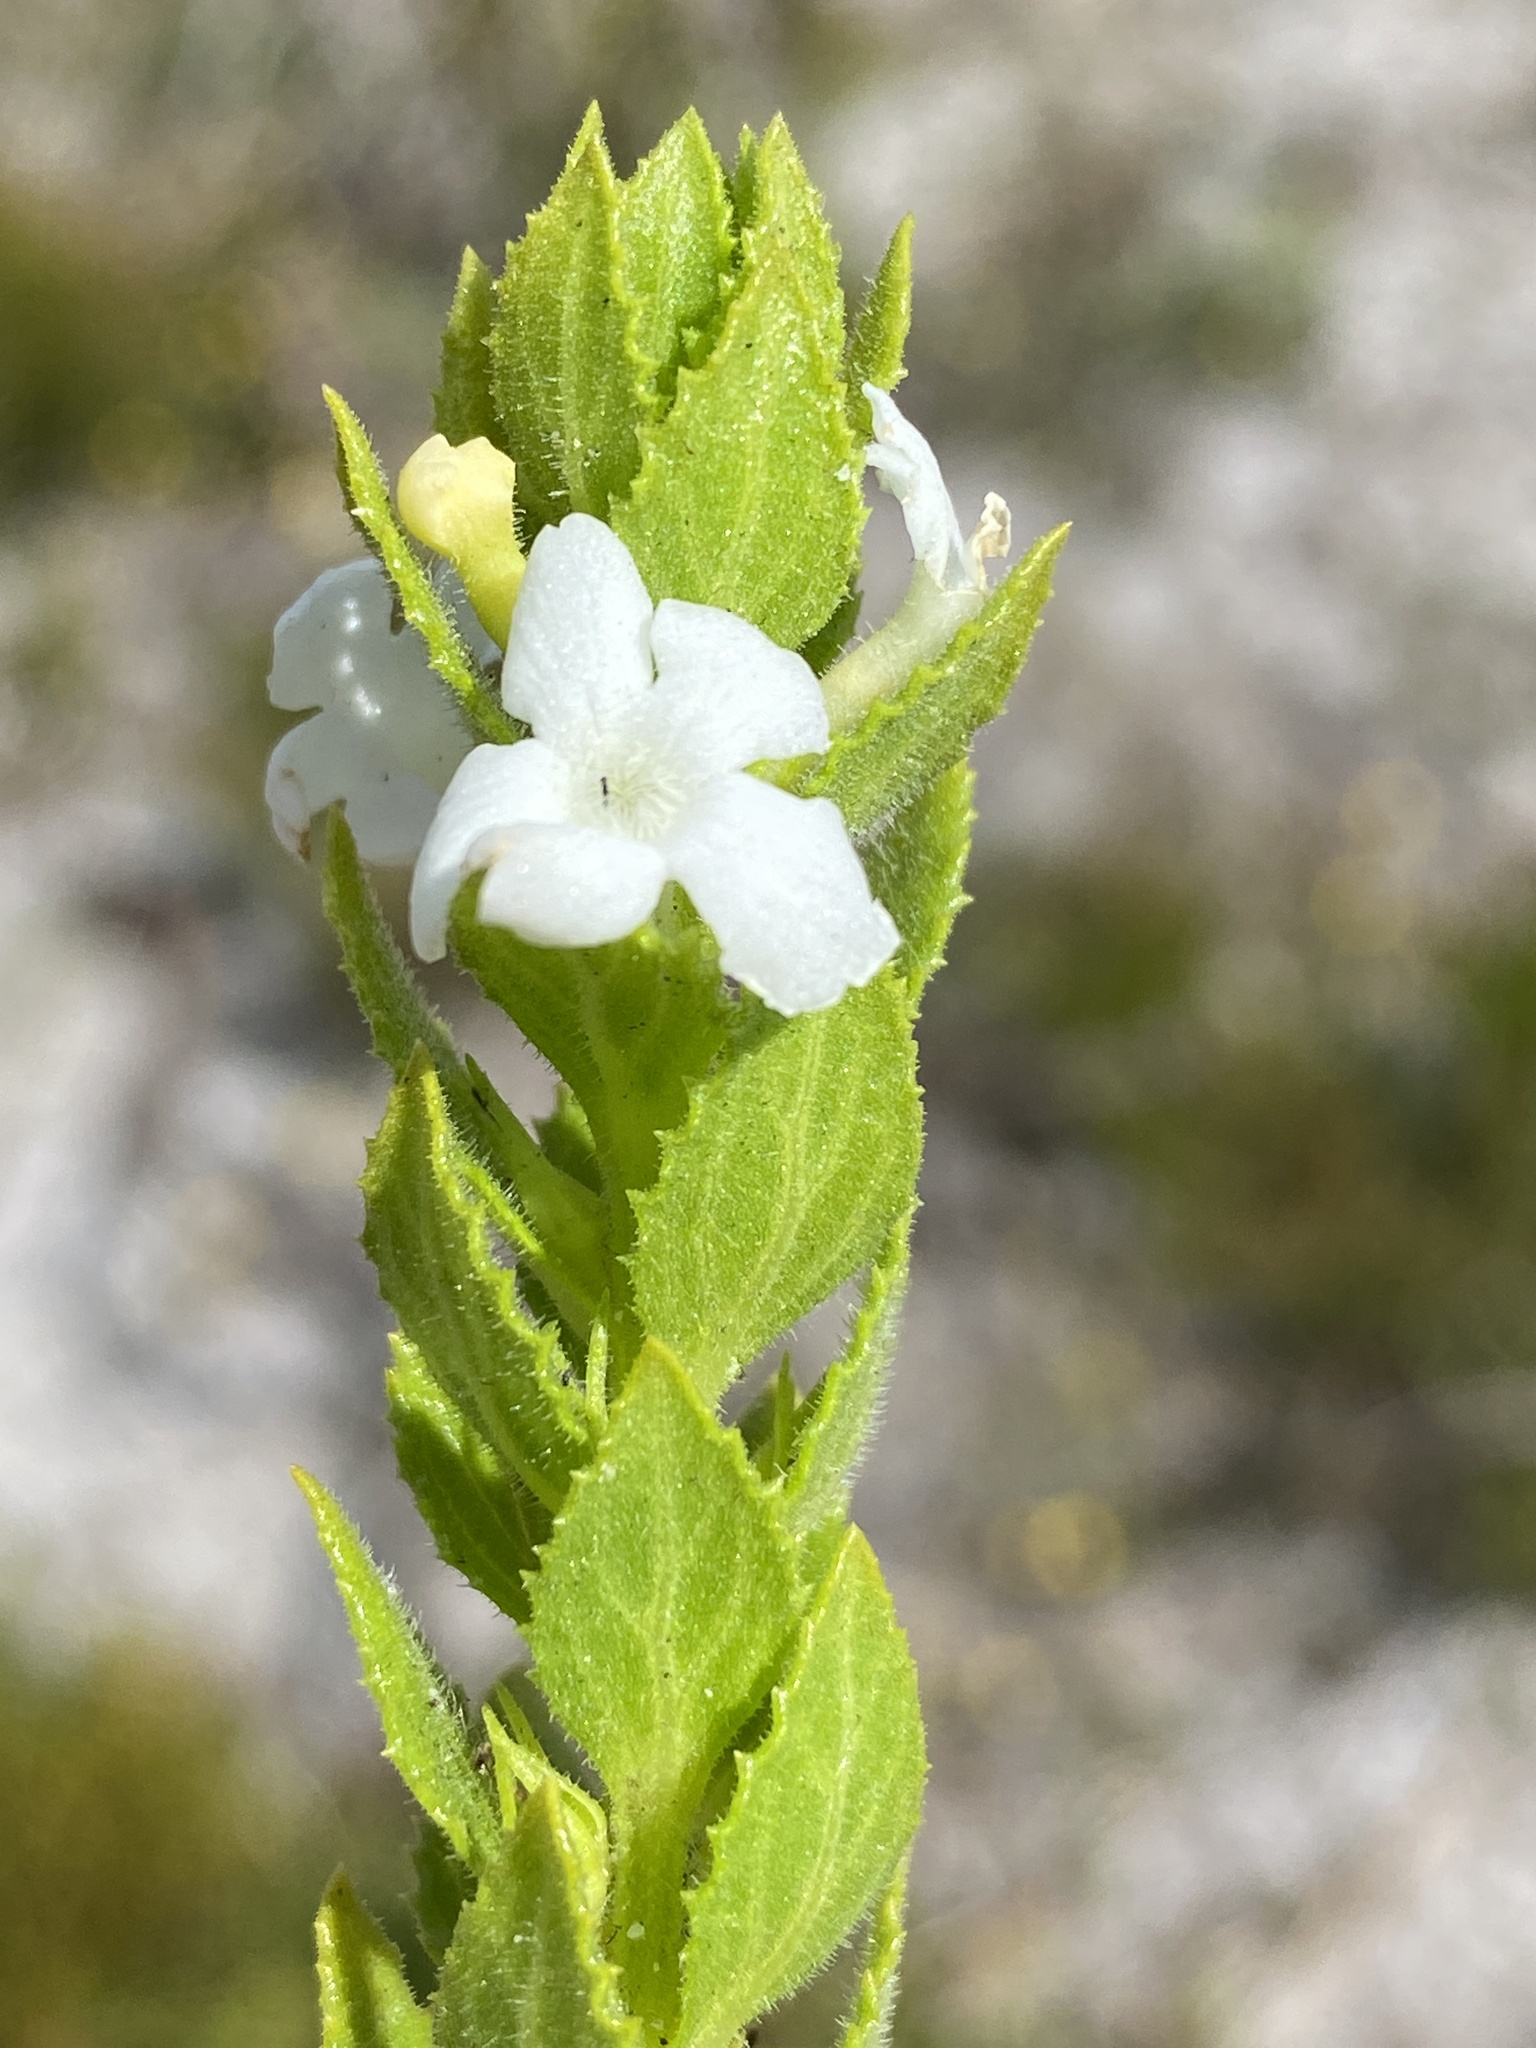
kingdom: Plantae
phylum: Tracheophyta
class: Magnoliopsida
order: Lamiales
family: Scrophulariaceae
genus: Oftia
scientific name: Oftia africana
